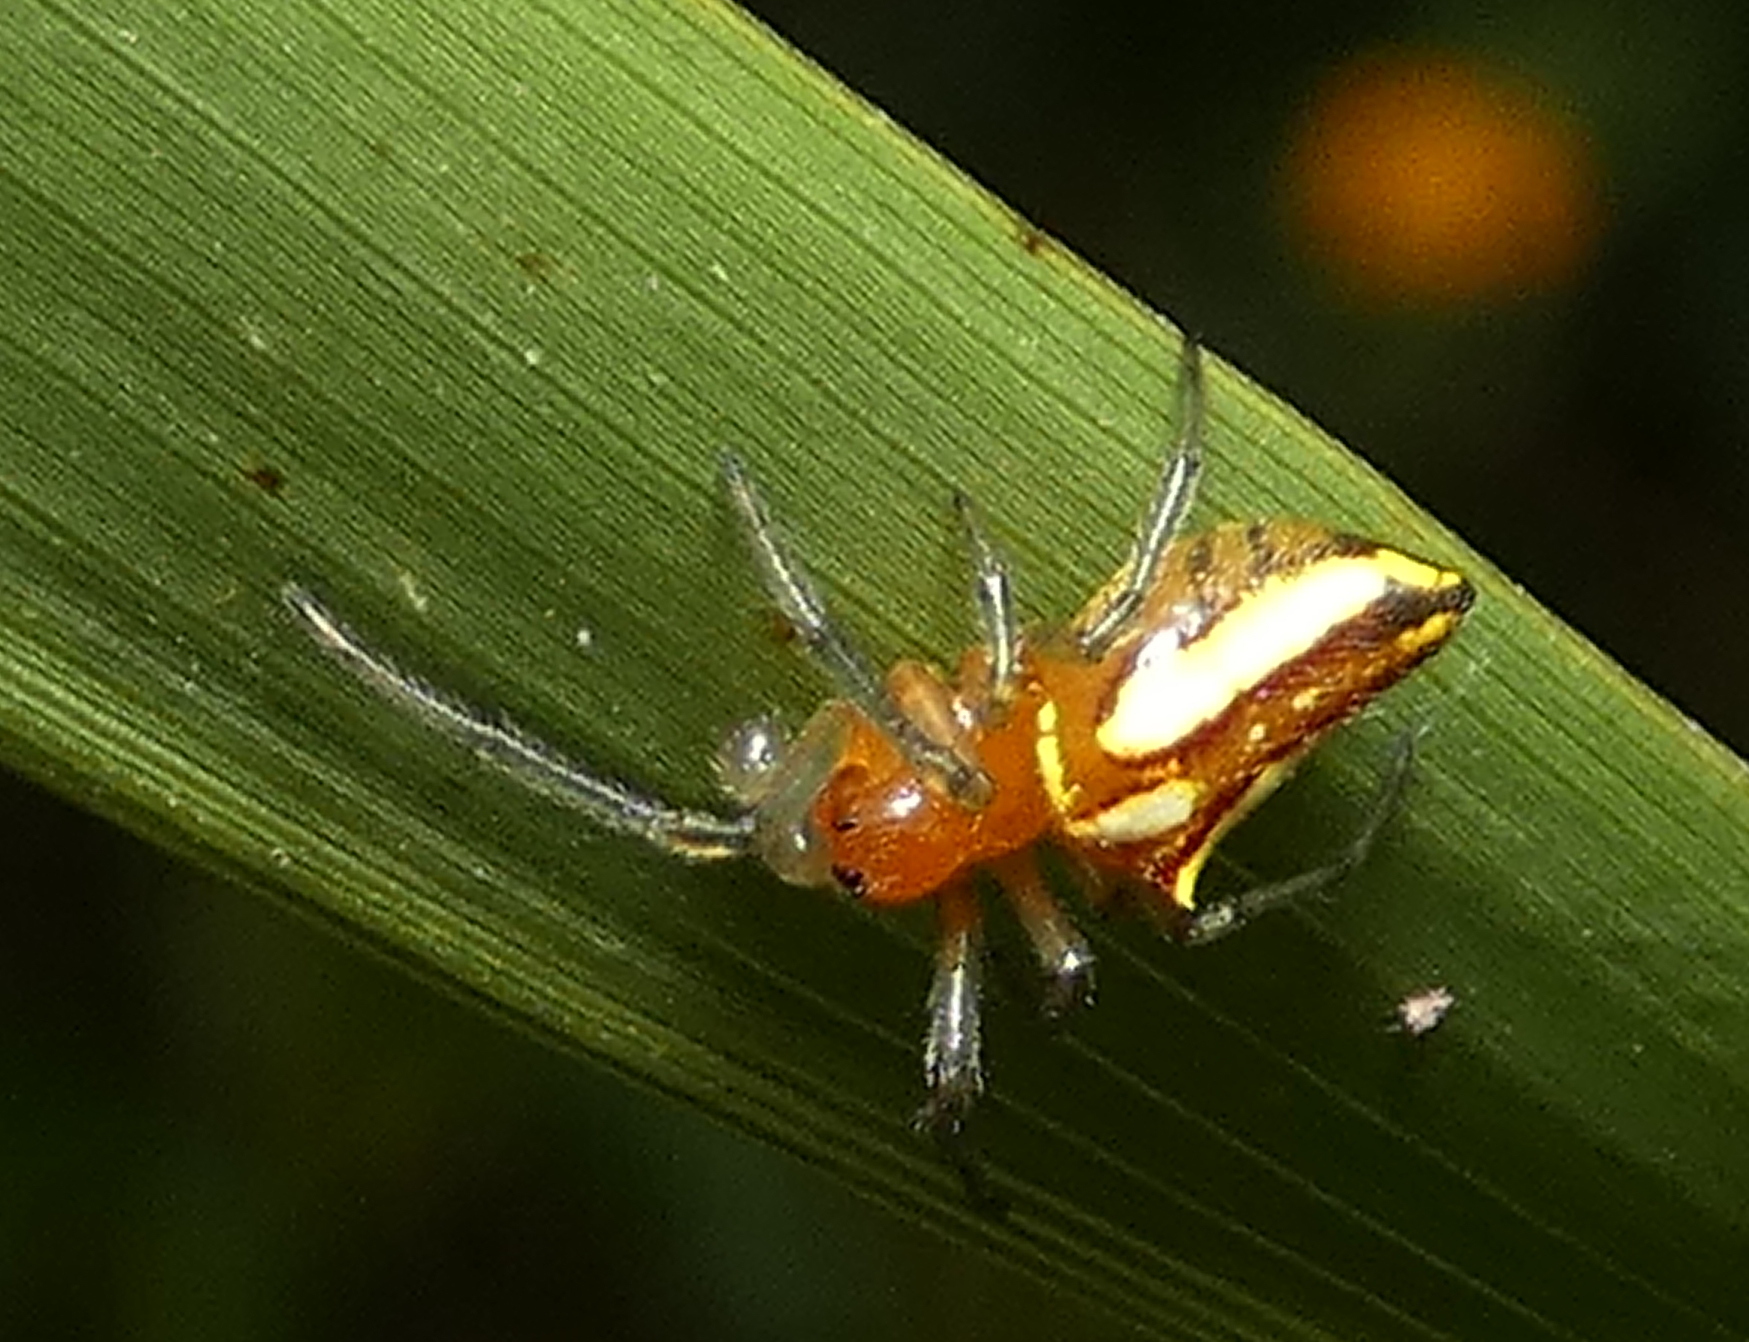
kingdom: Animalia
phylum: Arthropoda
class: Arachnida
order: Araneae
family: Araneidae
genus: Alpaida
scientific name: Alpaida bicornuta
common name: Orb weavers
